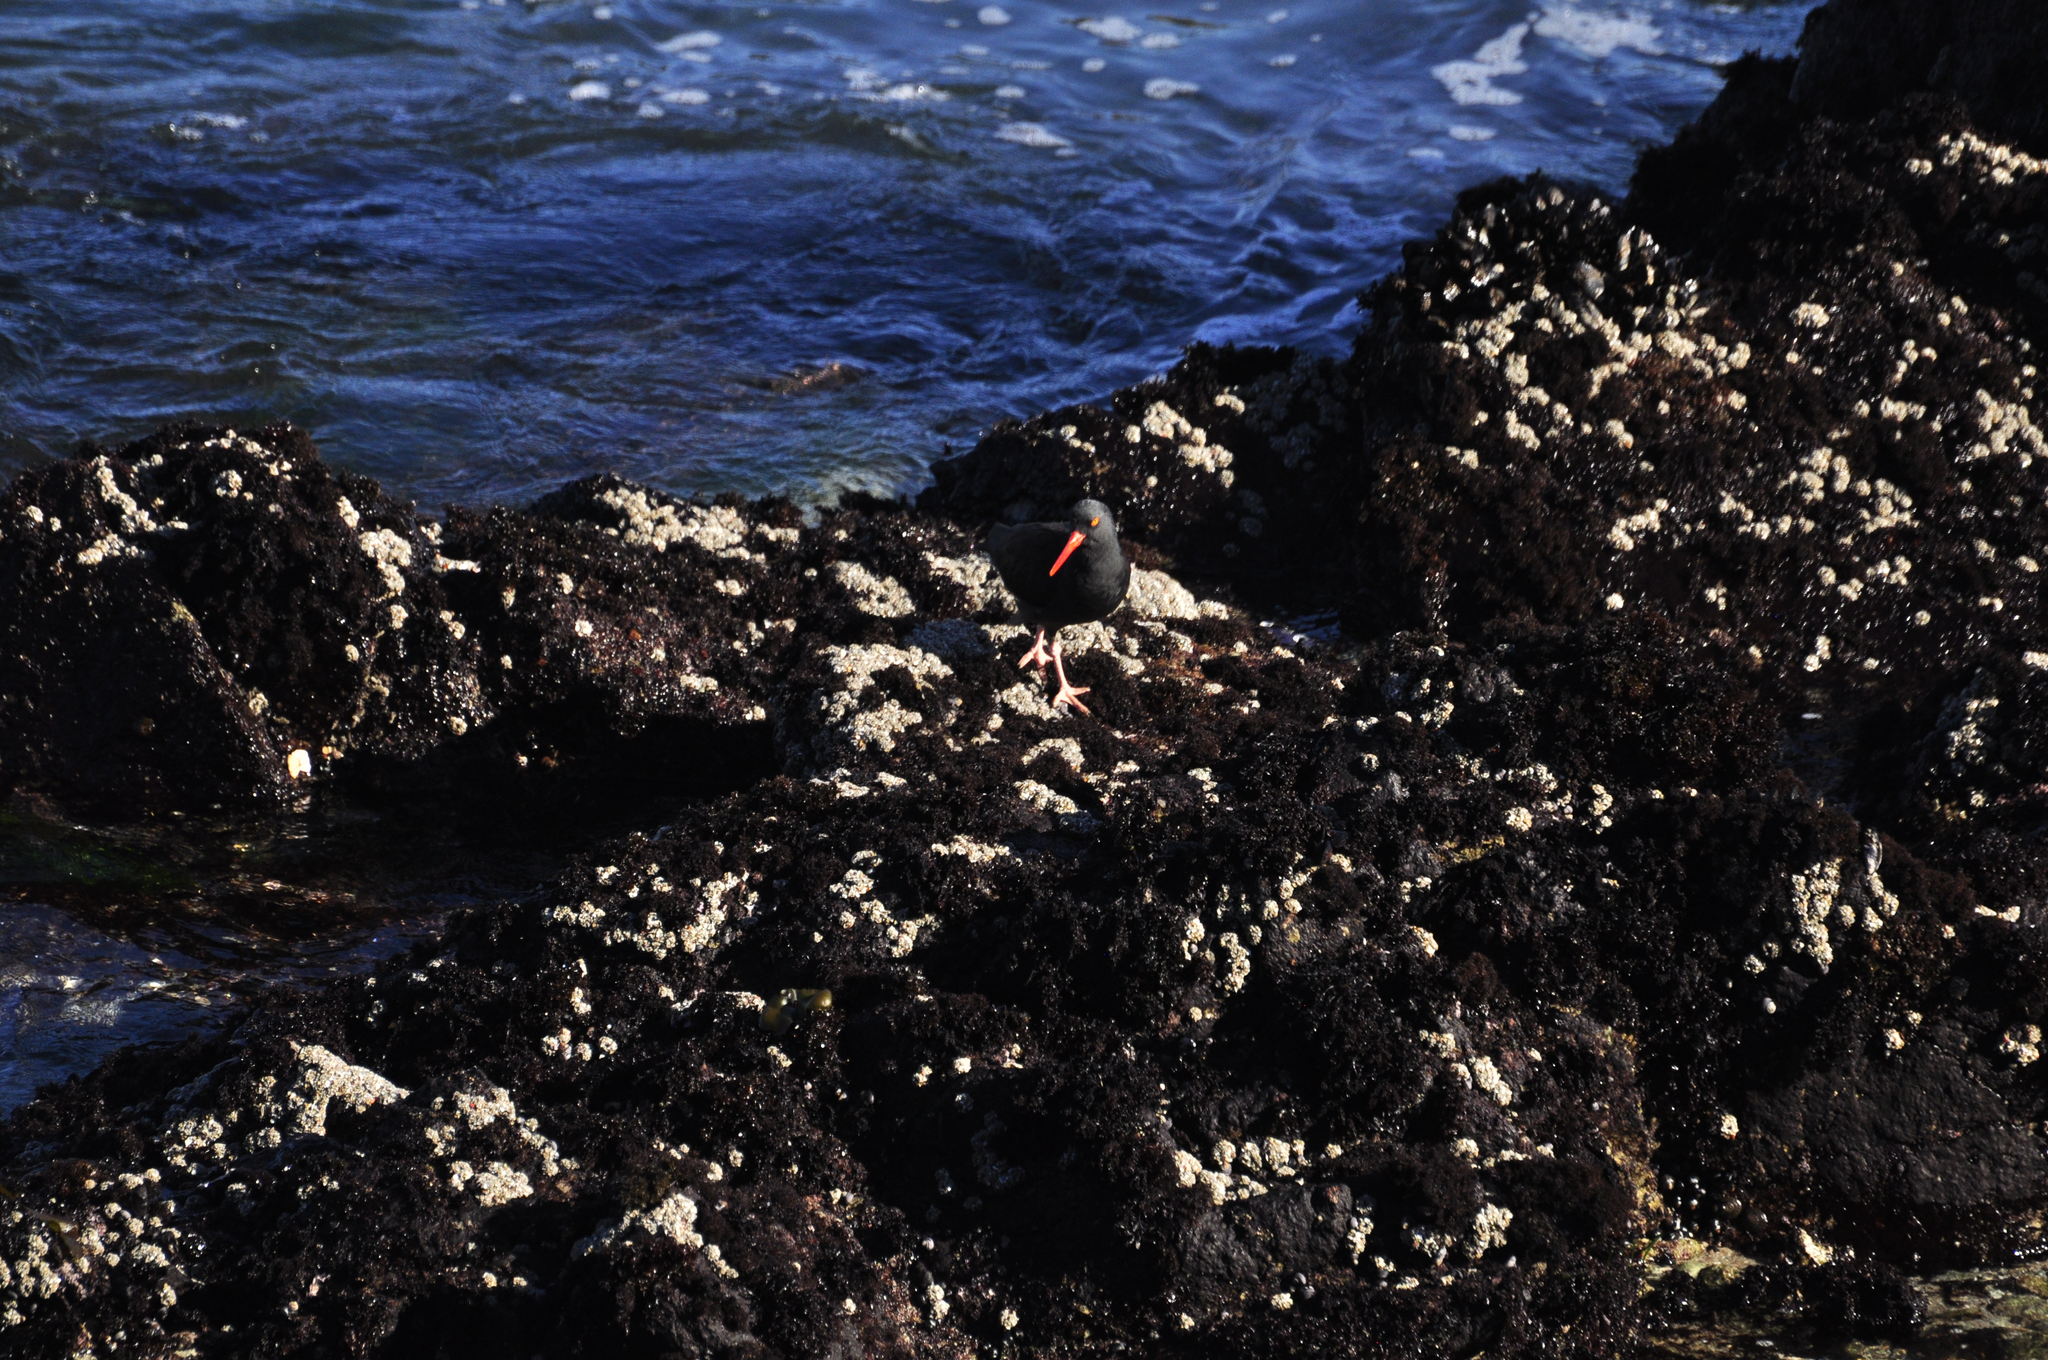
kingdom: Animalia
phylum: Chordata
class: Aves
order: Charadriiformes
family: Haematopodidae
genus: Haematopus
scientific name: Haematopus bachmani
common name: Black oystercatcher
